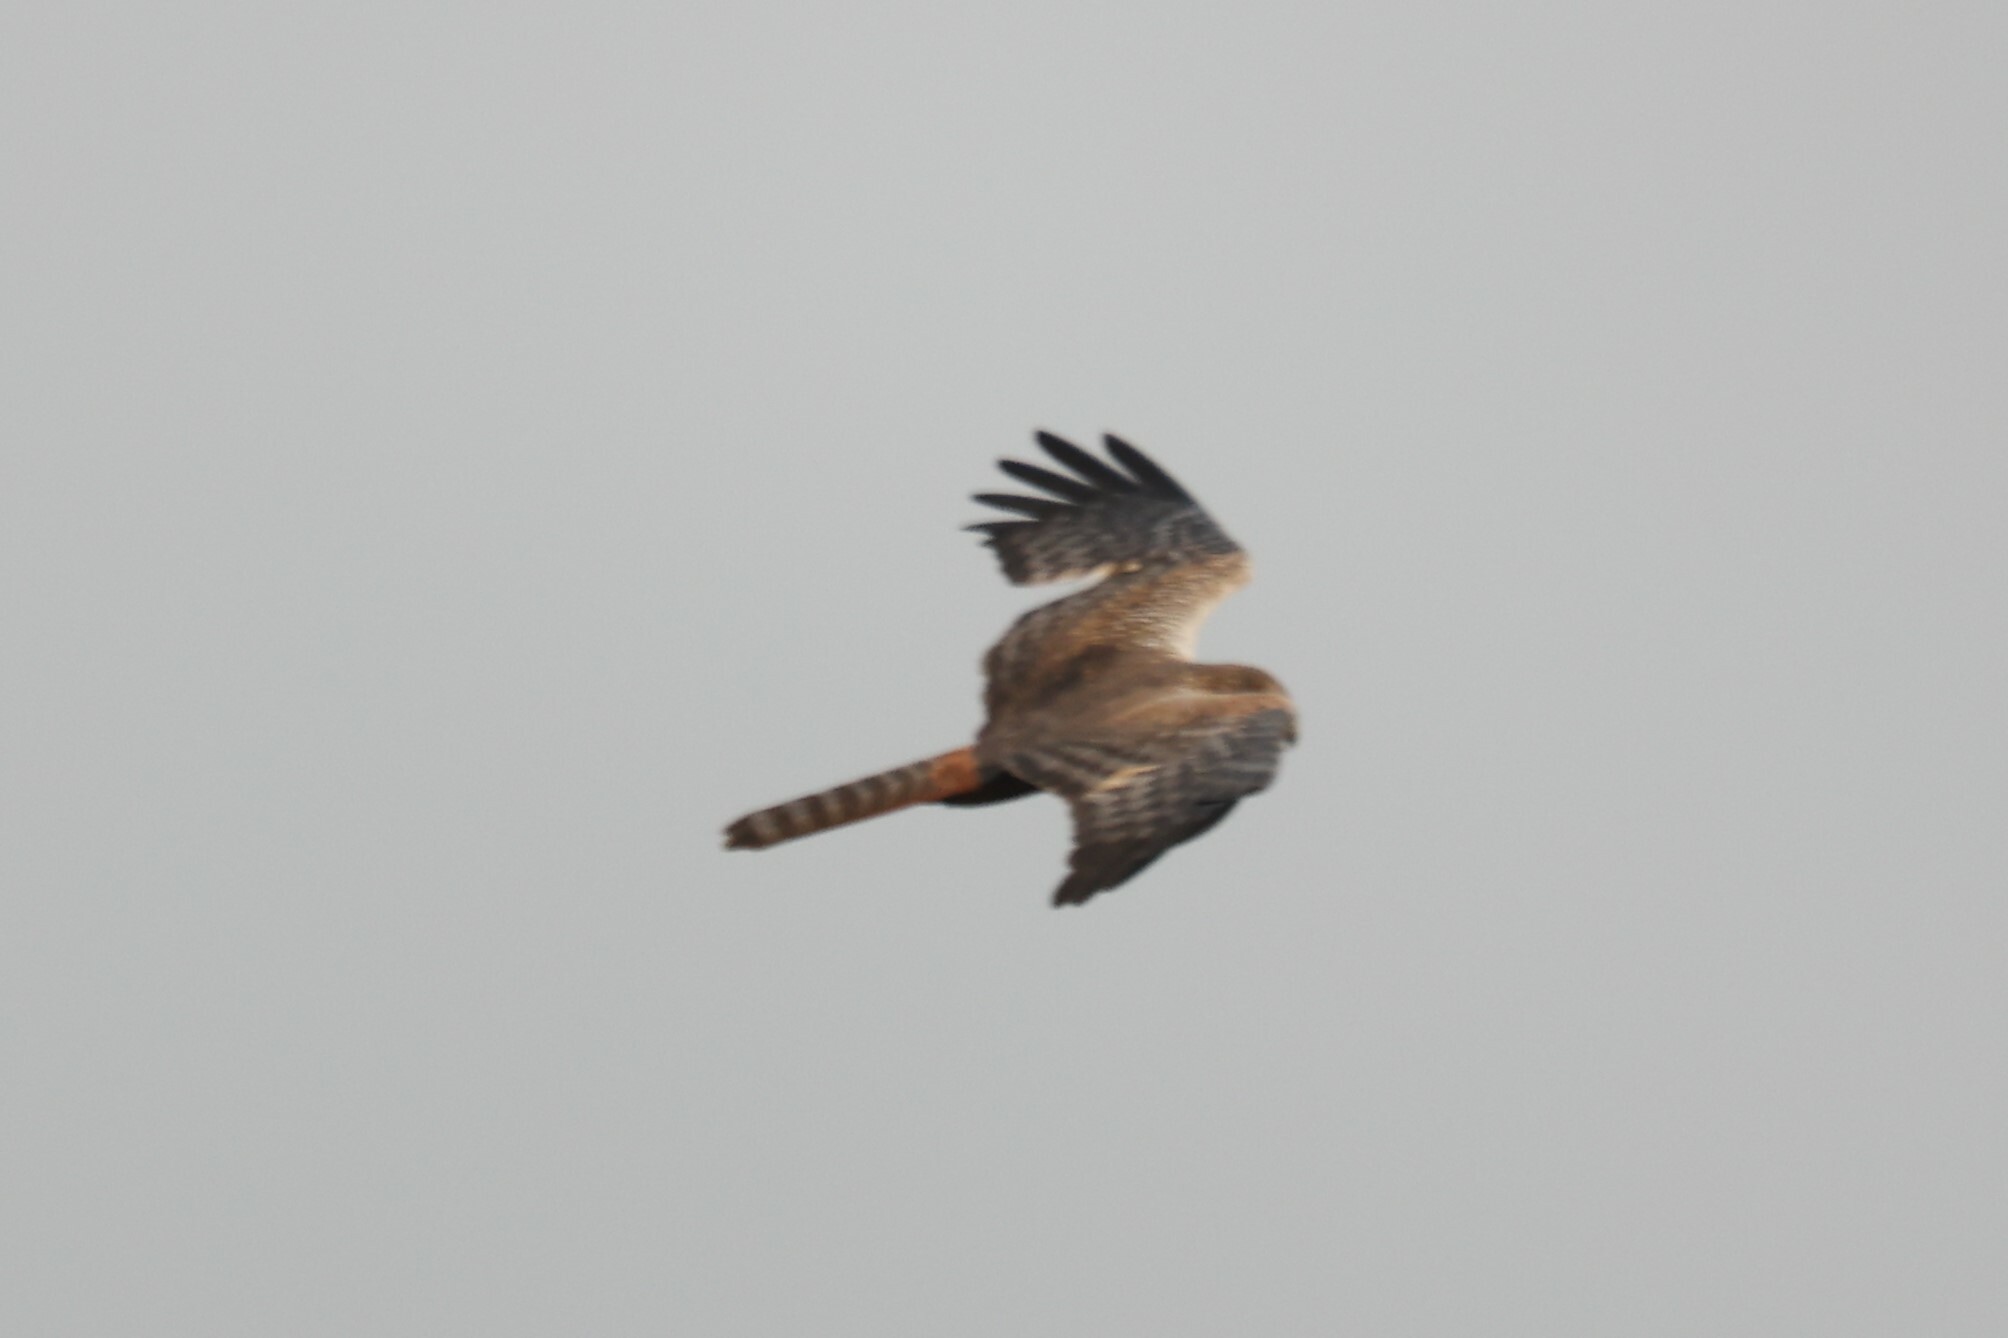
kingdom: Animalia
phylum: Chordata
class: Aves
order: Accipitriformes
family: Accipitridae
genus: Circus
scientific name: Circus ranivorus
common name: African marsh-harrier
